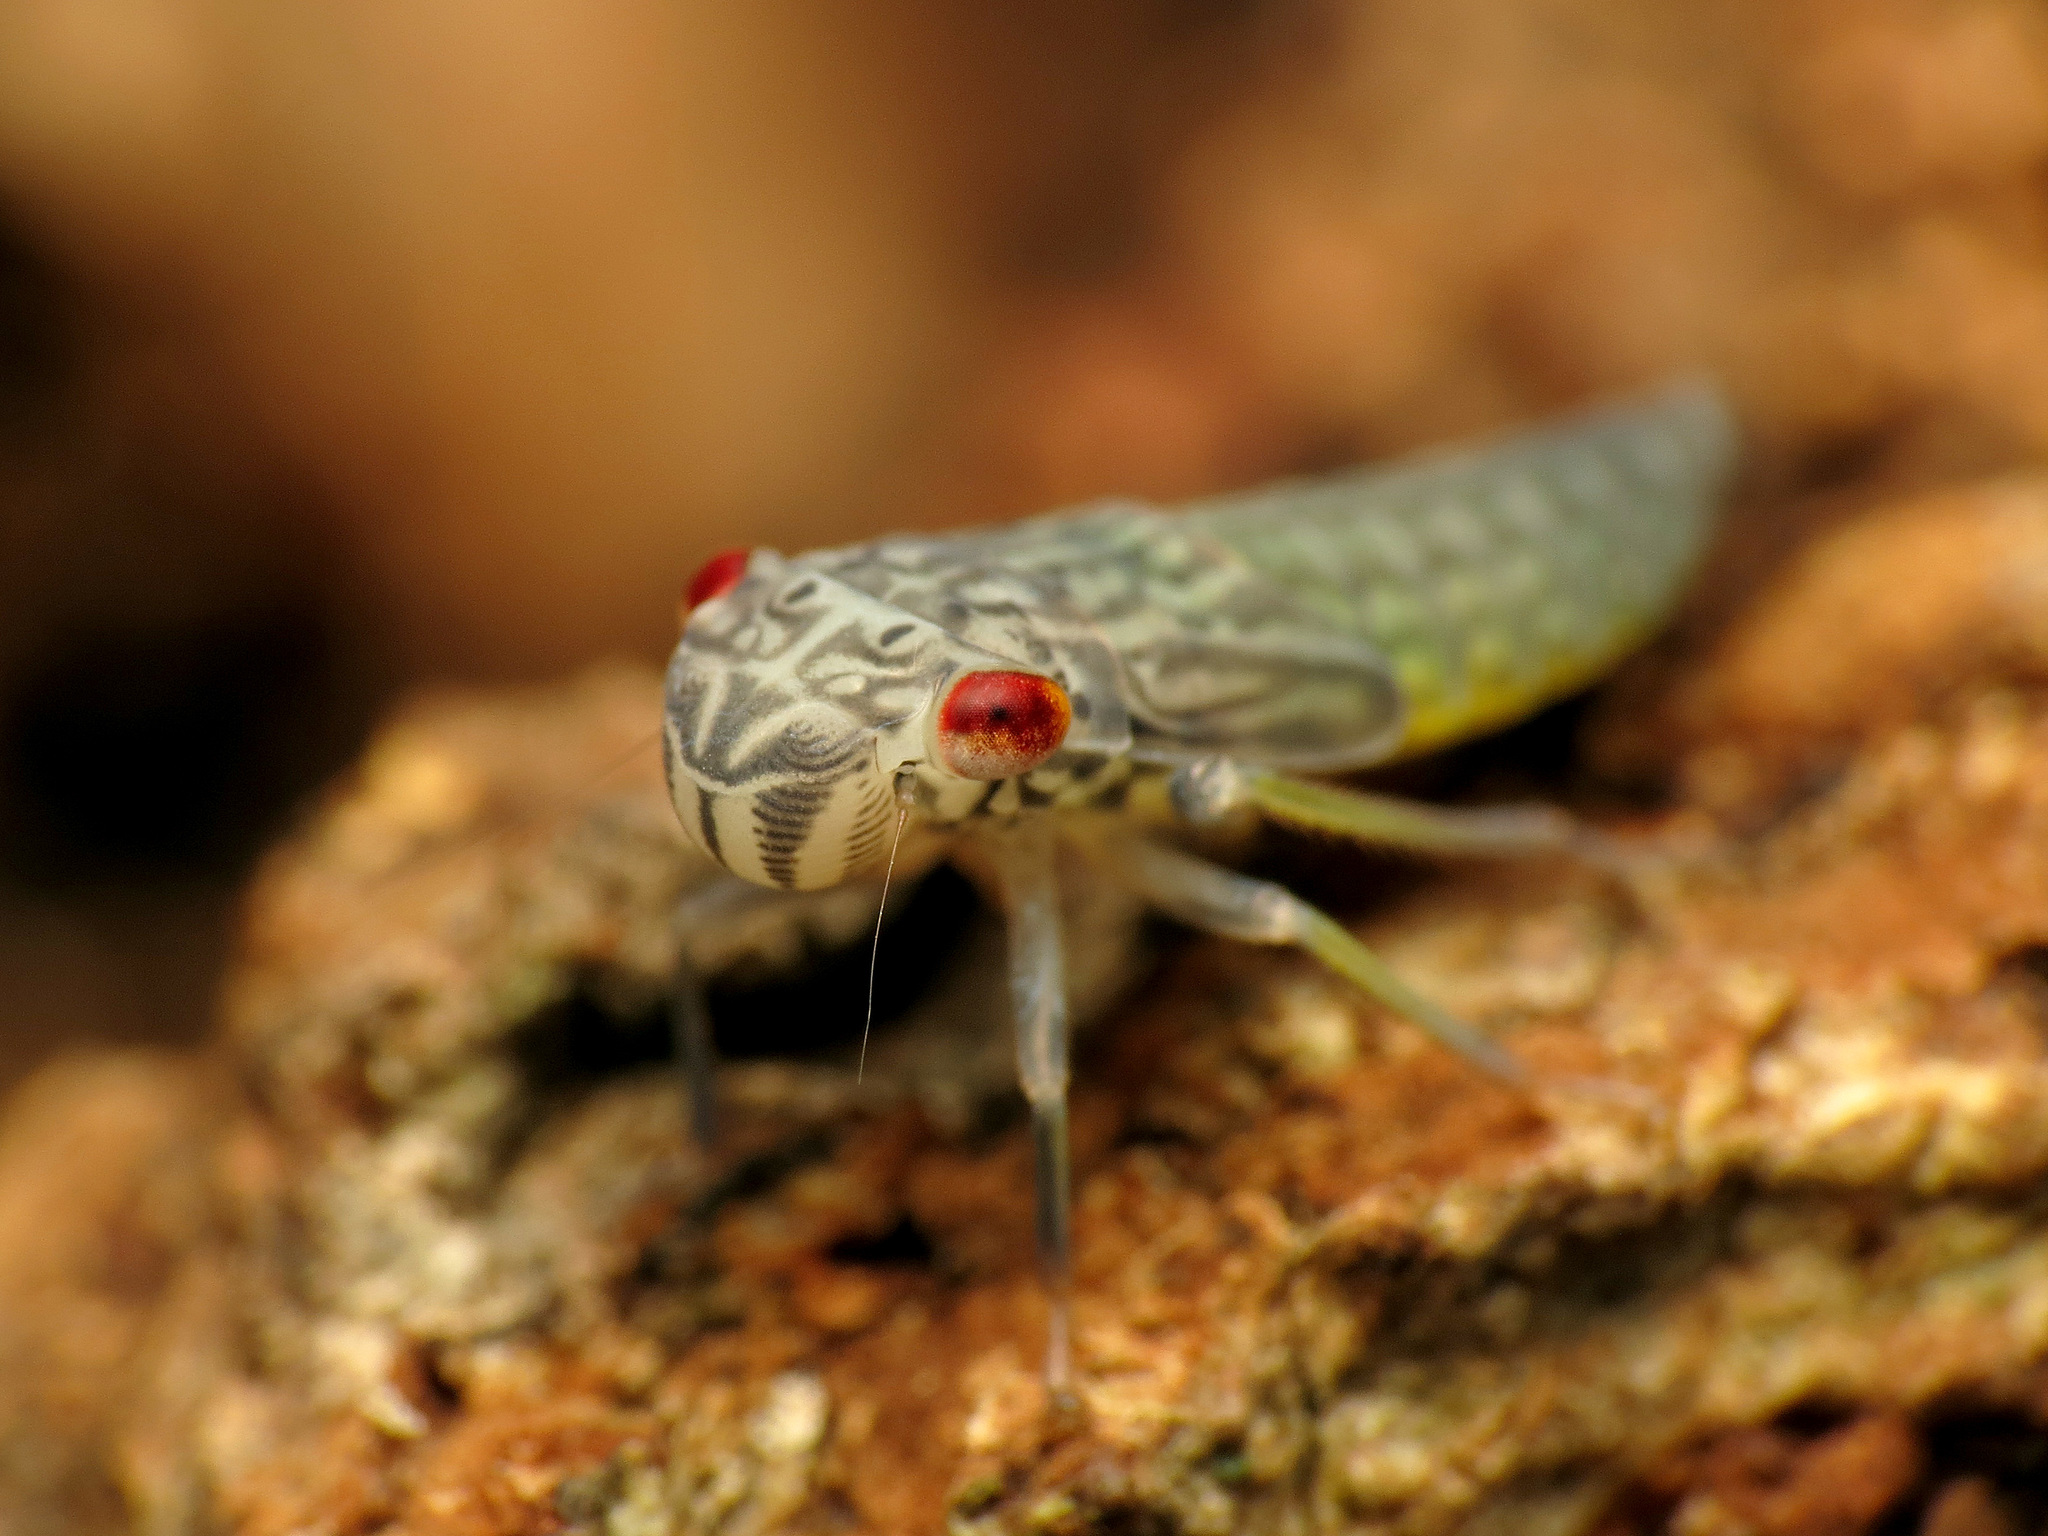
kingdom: Animalia
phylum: Arthropoda
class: Insecta
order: Hemiptera
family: Cicadellidae
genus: Oncometopia
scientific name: Oncometopia orbona
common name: Broad-headed sharpshooter
